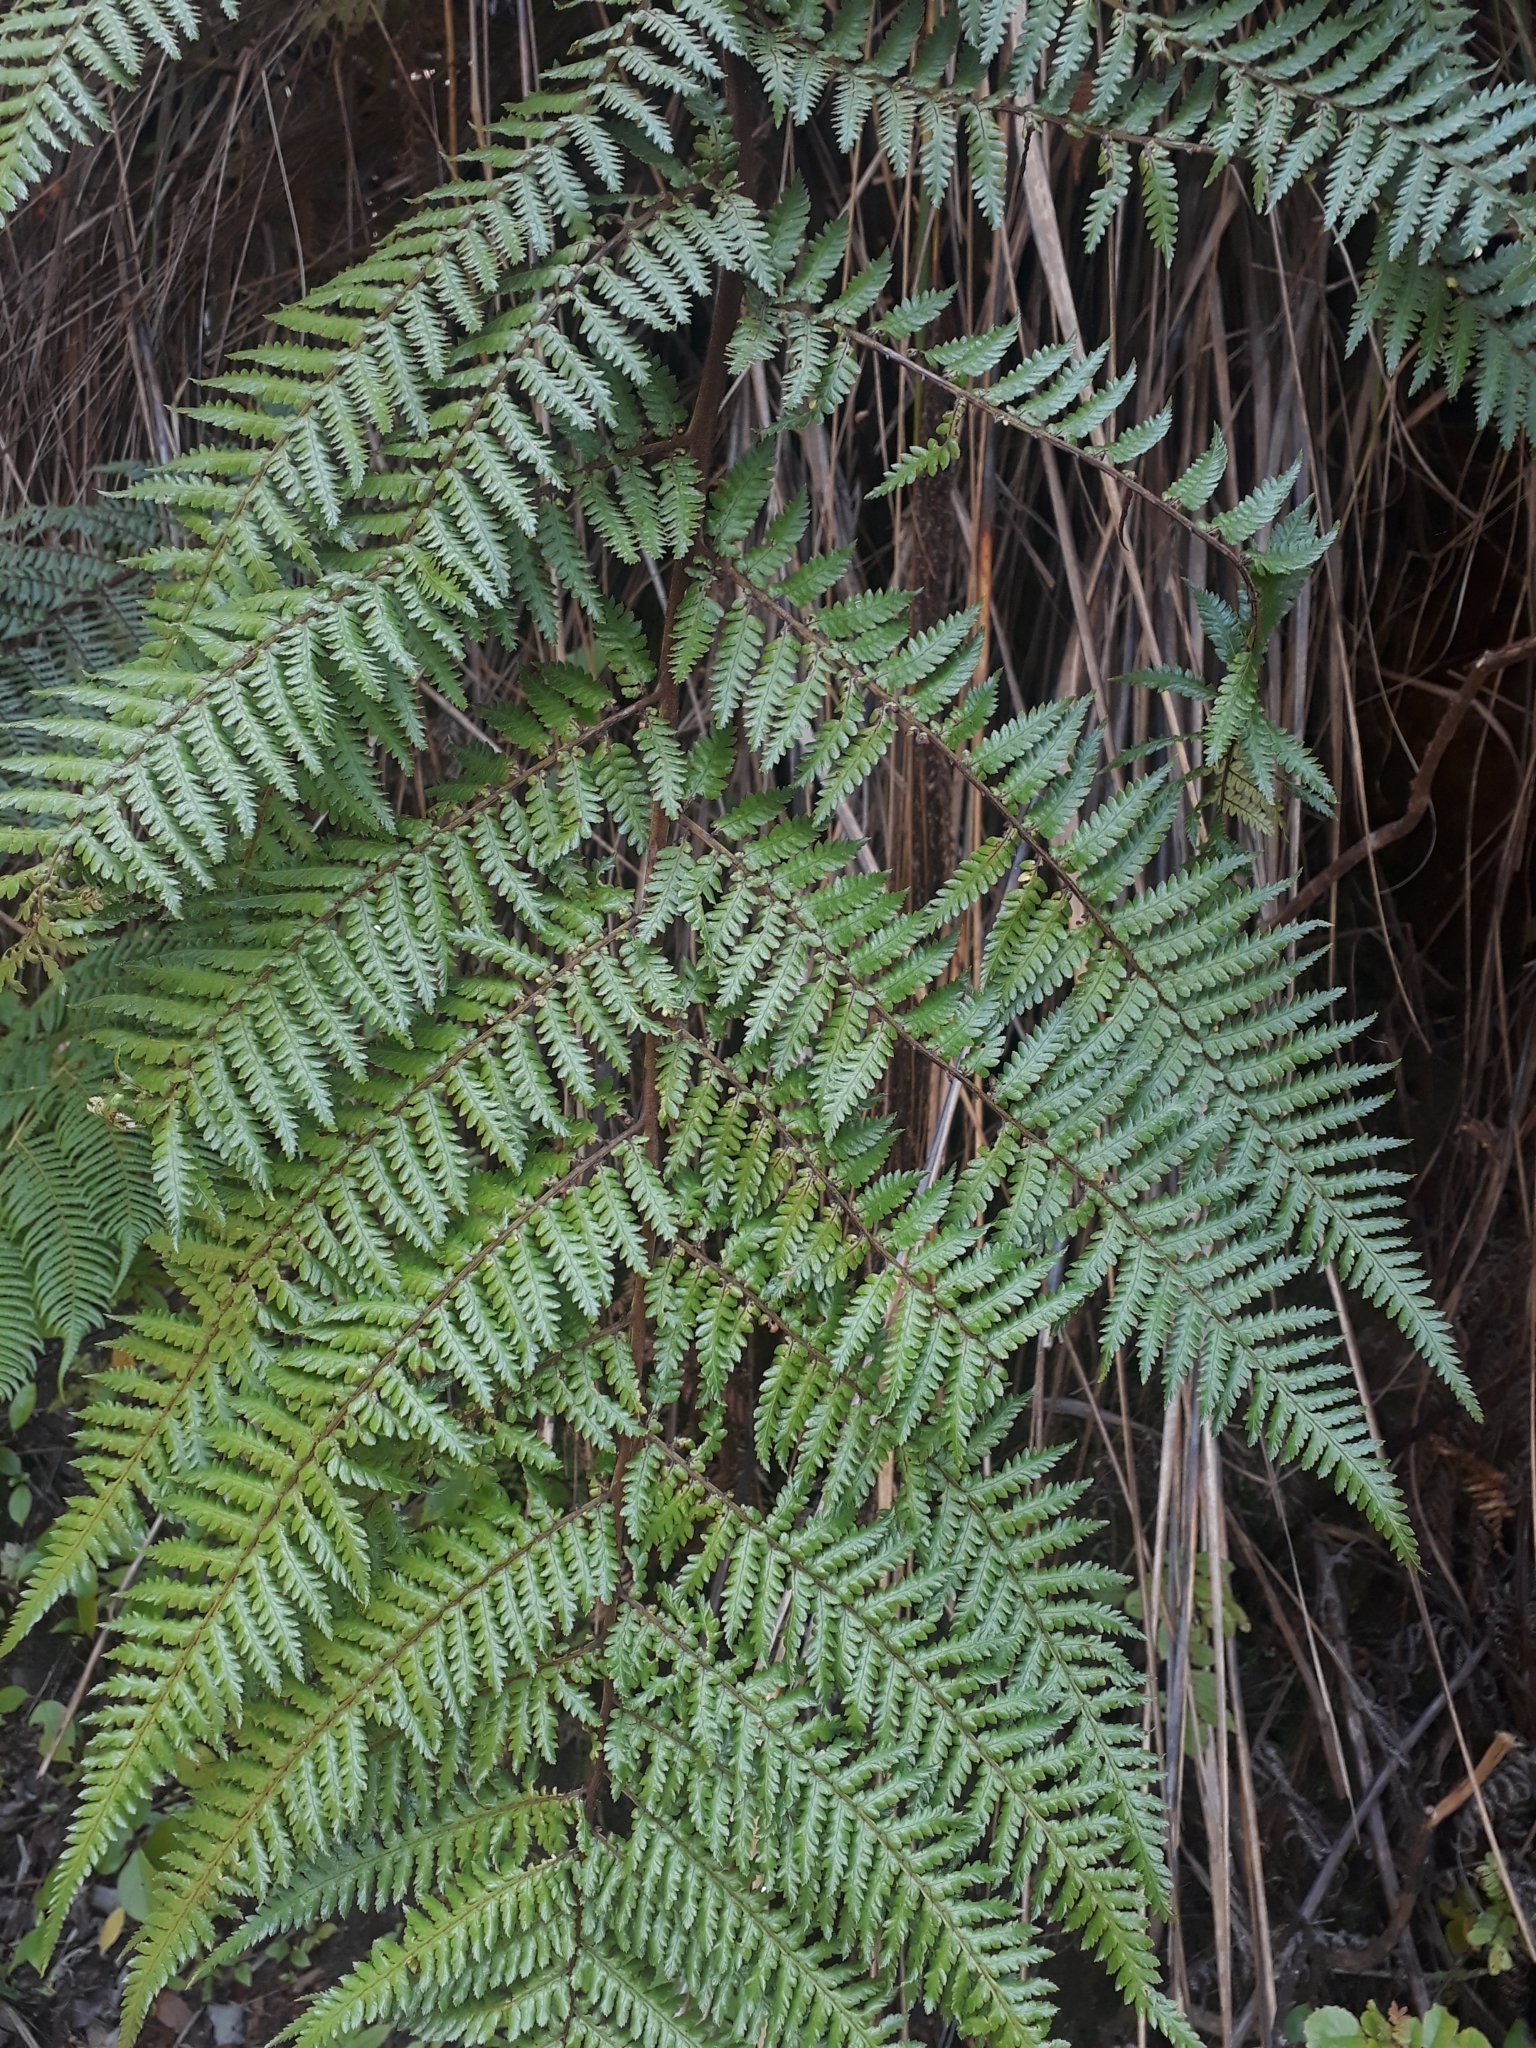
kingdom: Plantae
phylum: Tracheophyta
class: Polypodiopsida
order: Cyatheales
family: Dicksoniaceae
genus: Dicksonia
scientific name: Dicksonia squarrosa
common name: Hard treefern
